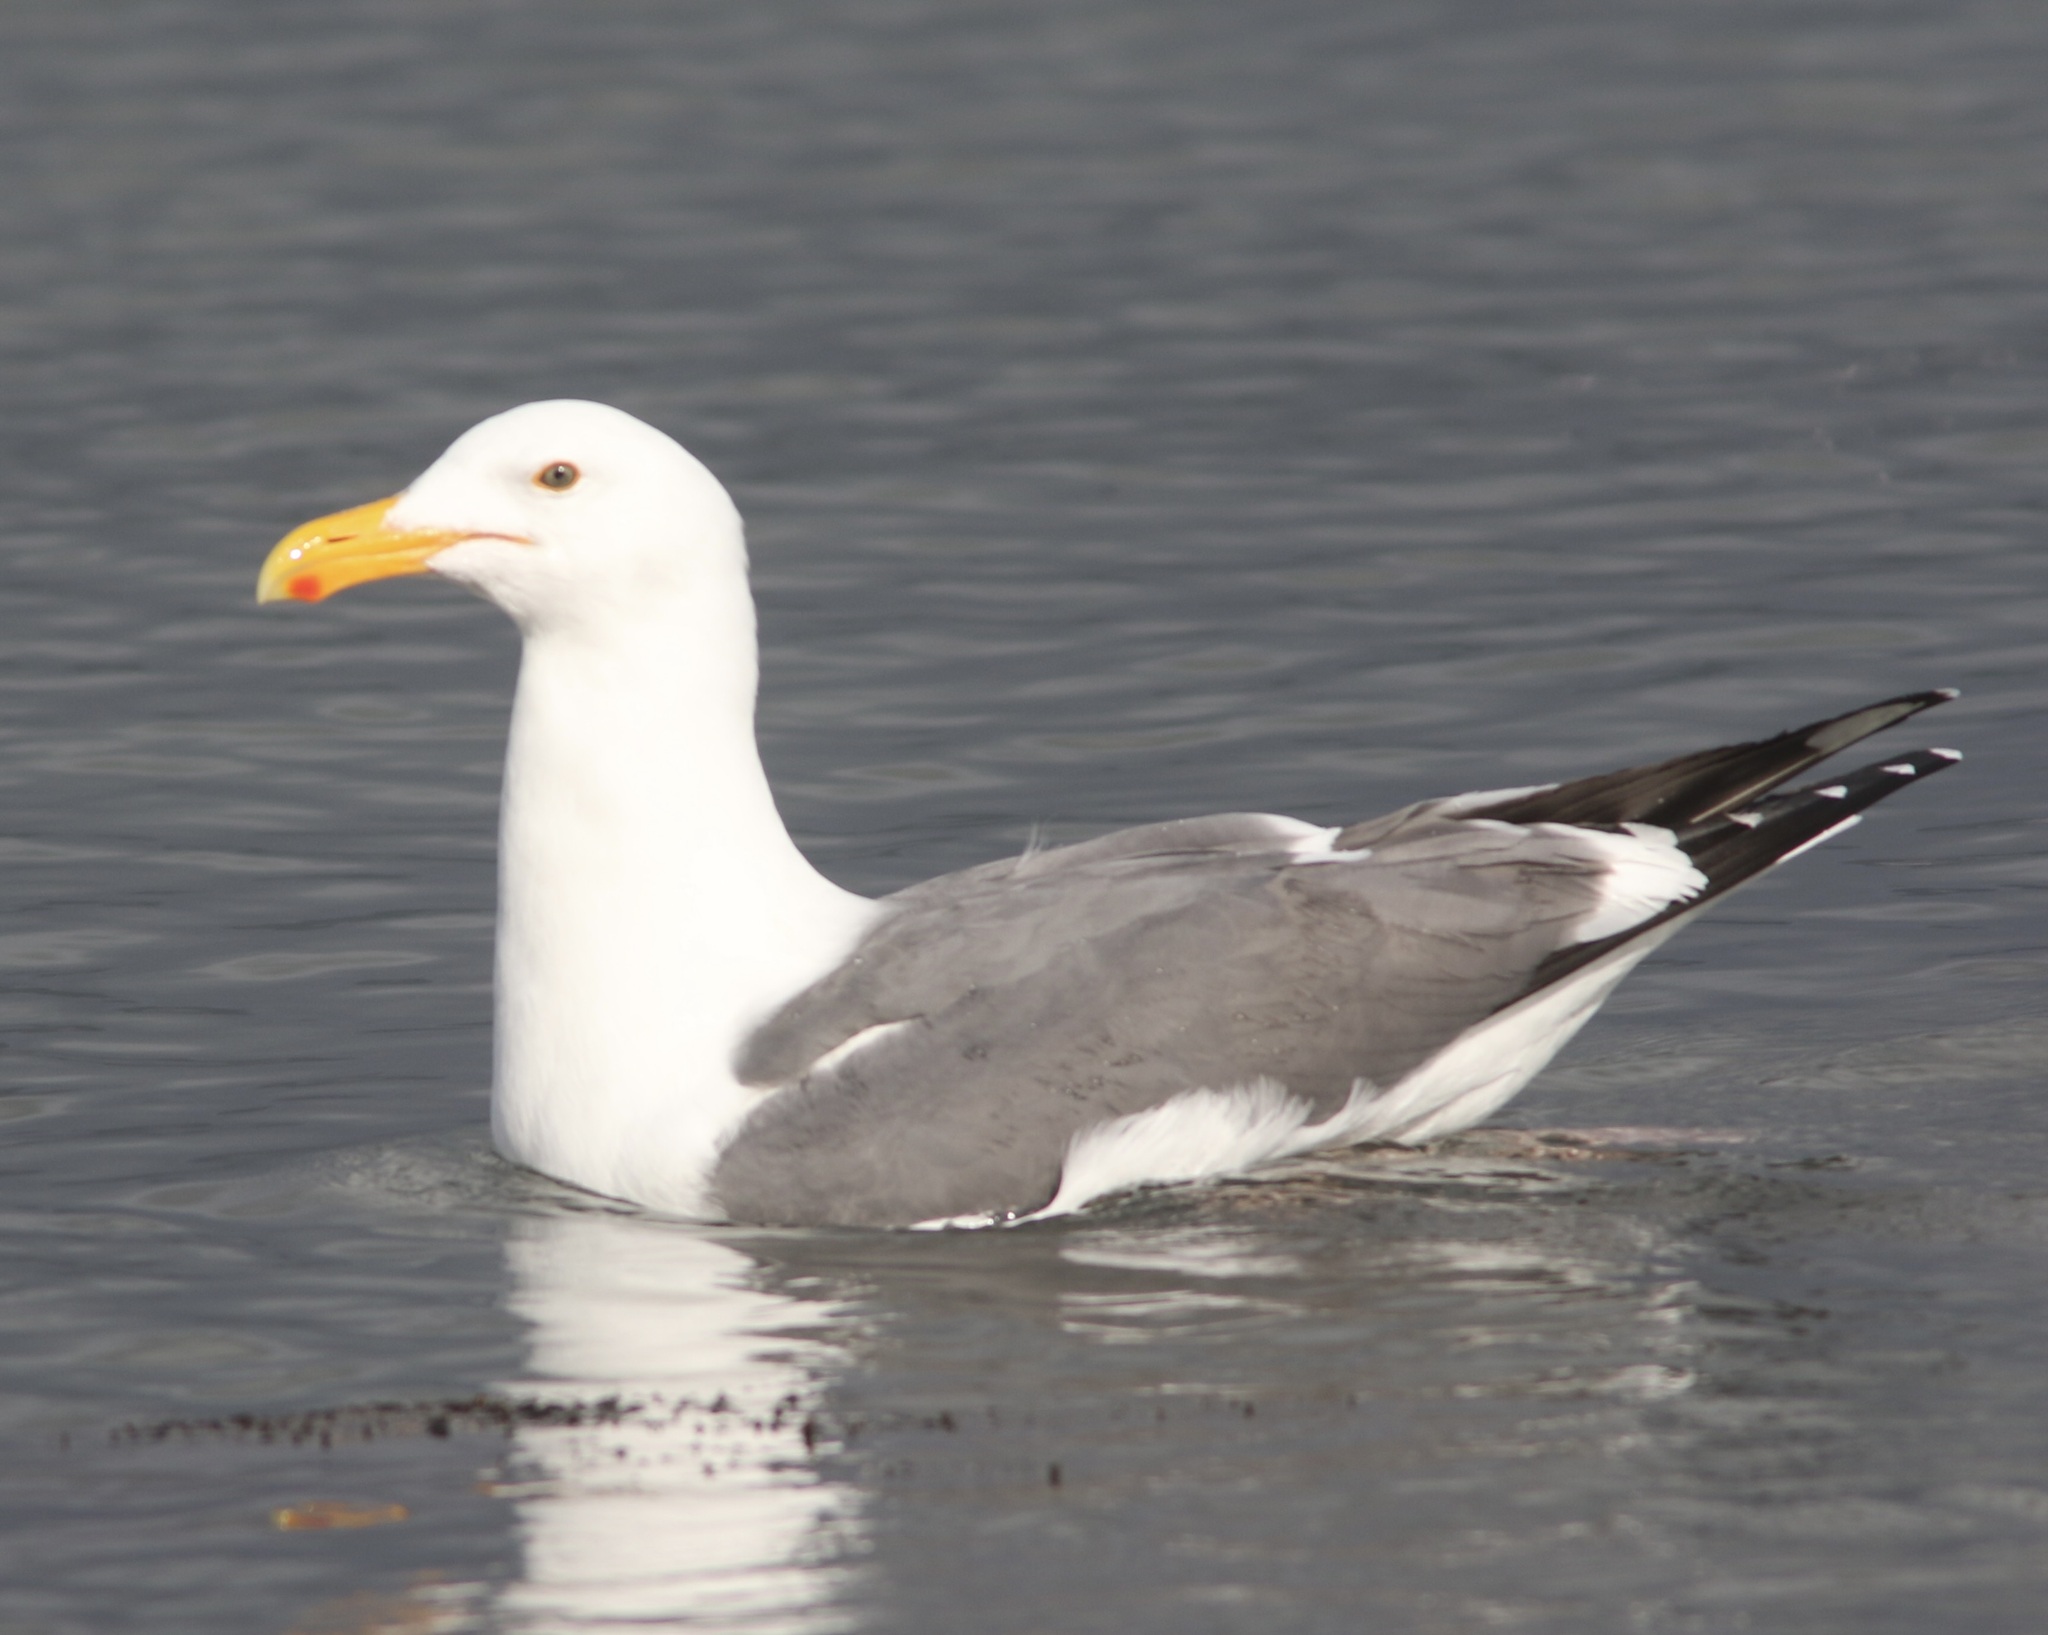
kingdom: Animalia
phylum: Chordata
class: Aves
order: Charadriiformes
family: Laridae
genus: Larus
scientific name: Larus occidentalis
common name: Western gull
